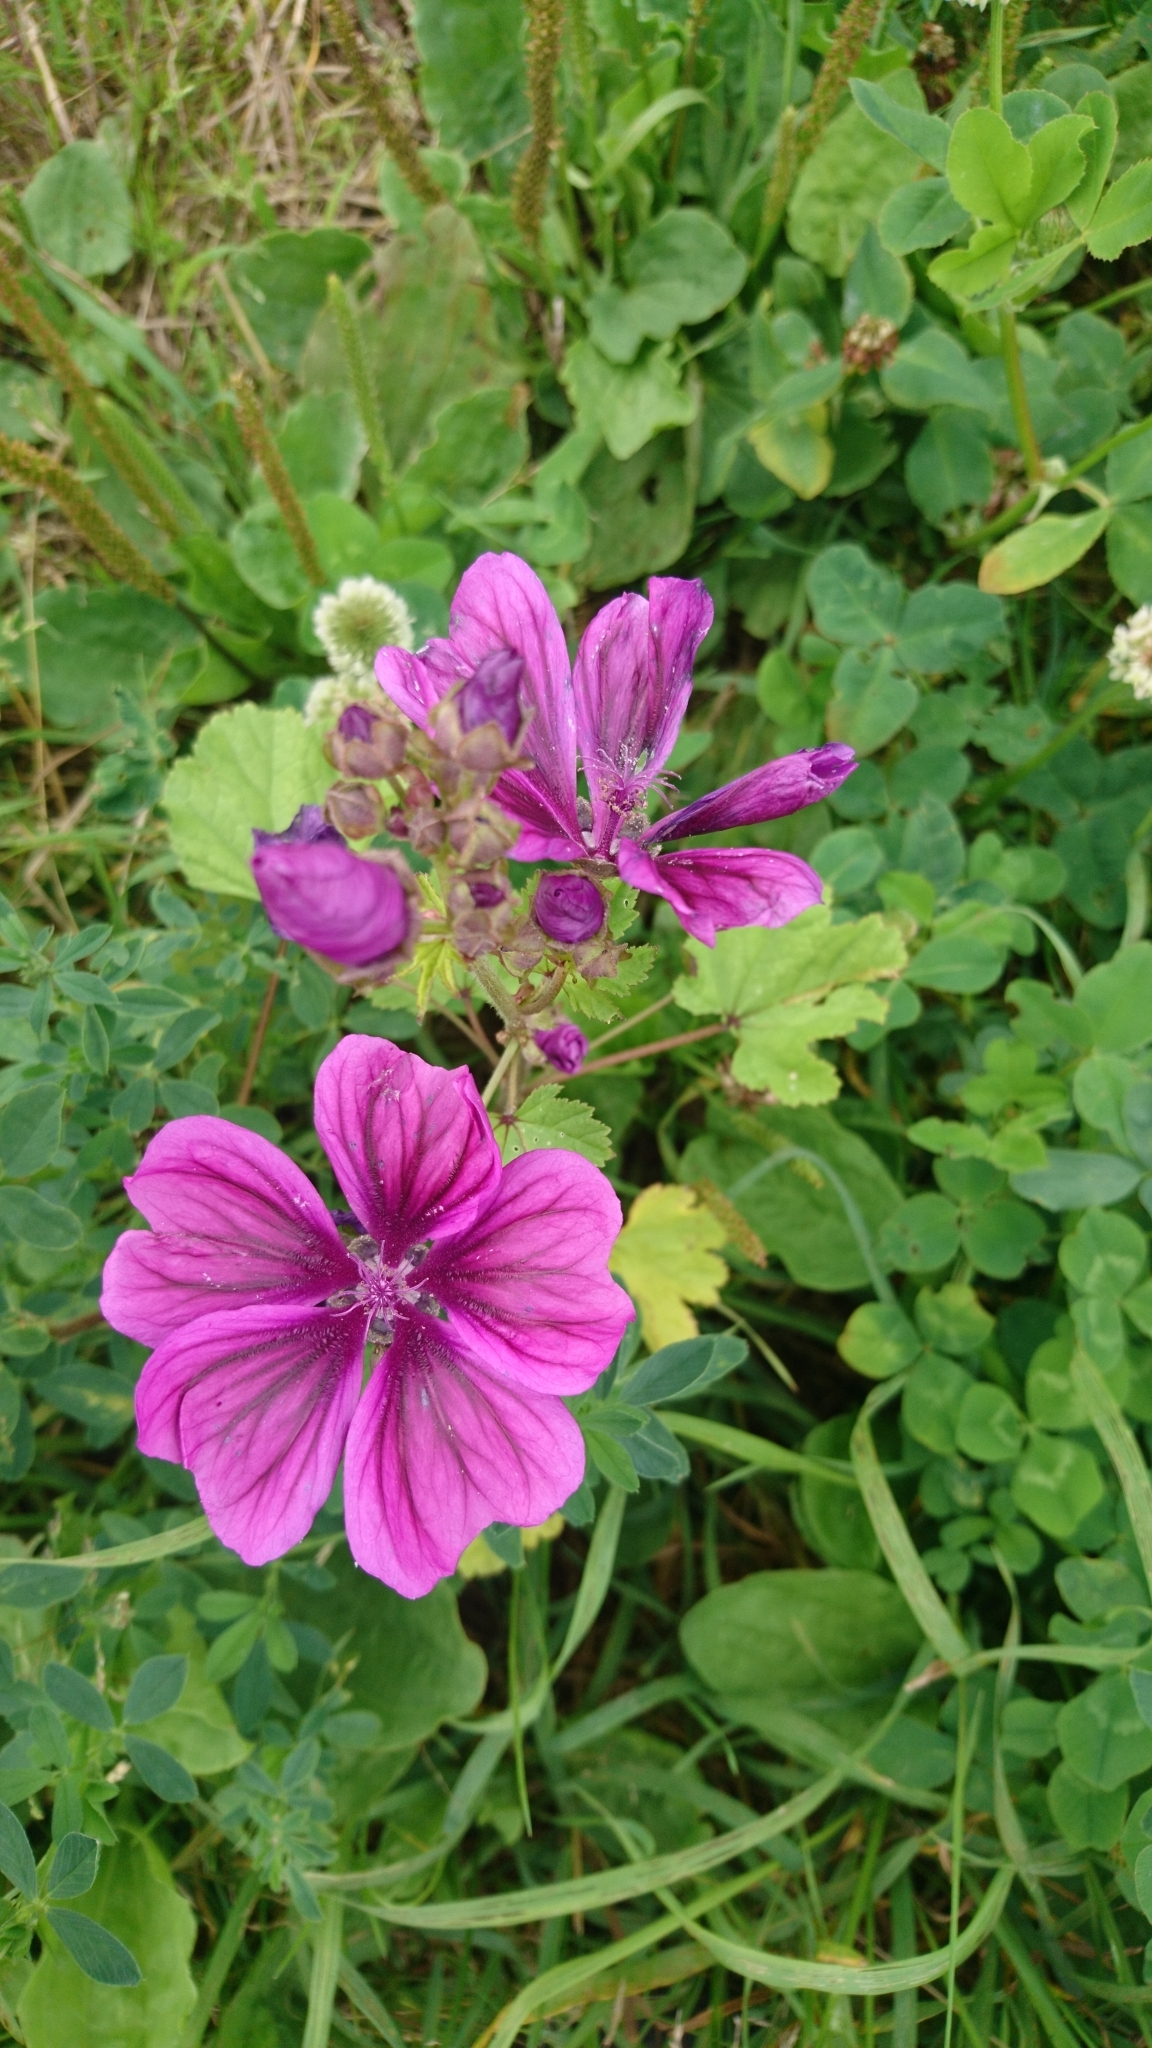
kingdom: Plantae
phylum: Tracheophyta
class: Magnoliopsida
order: Malvales
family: Malvaceae
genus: Malva
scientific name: Malva sylvestris
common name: Common mallow
